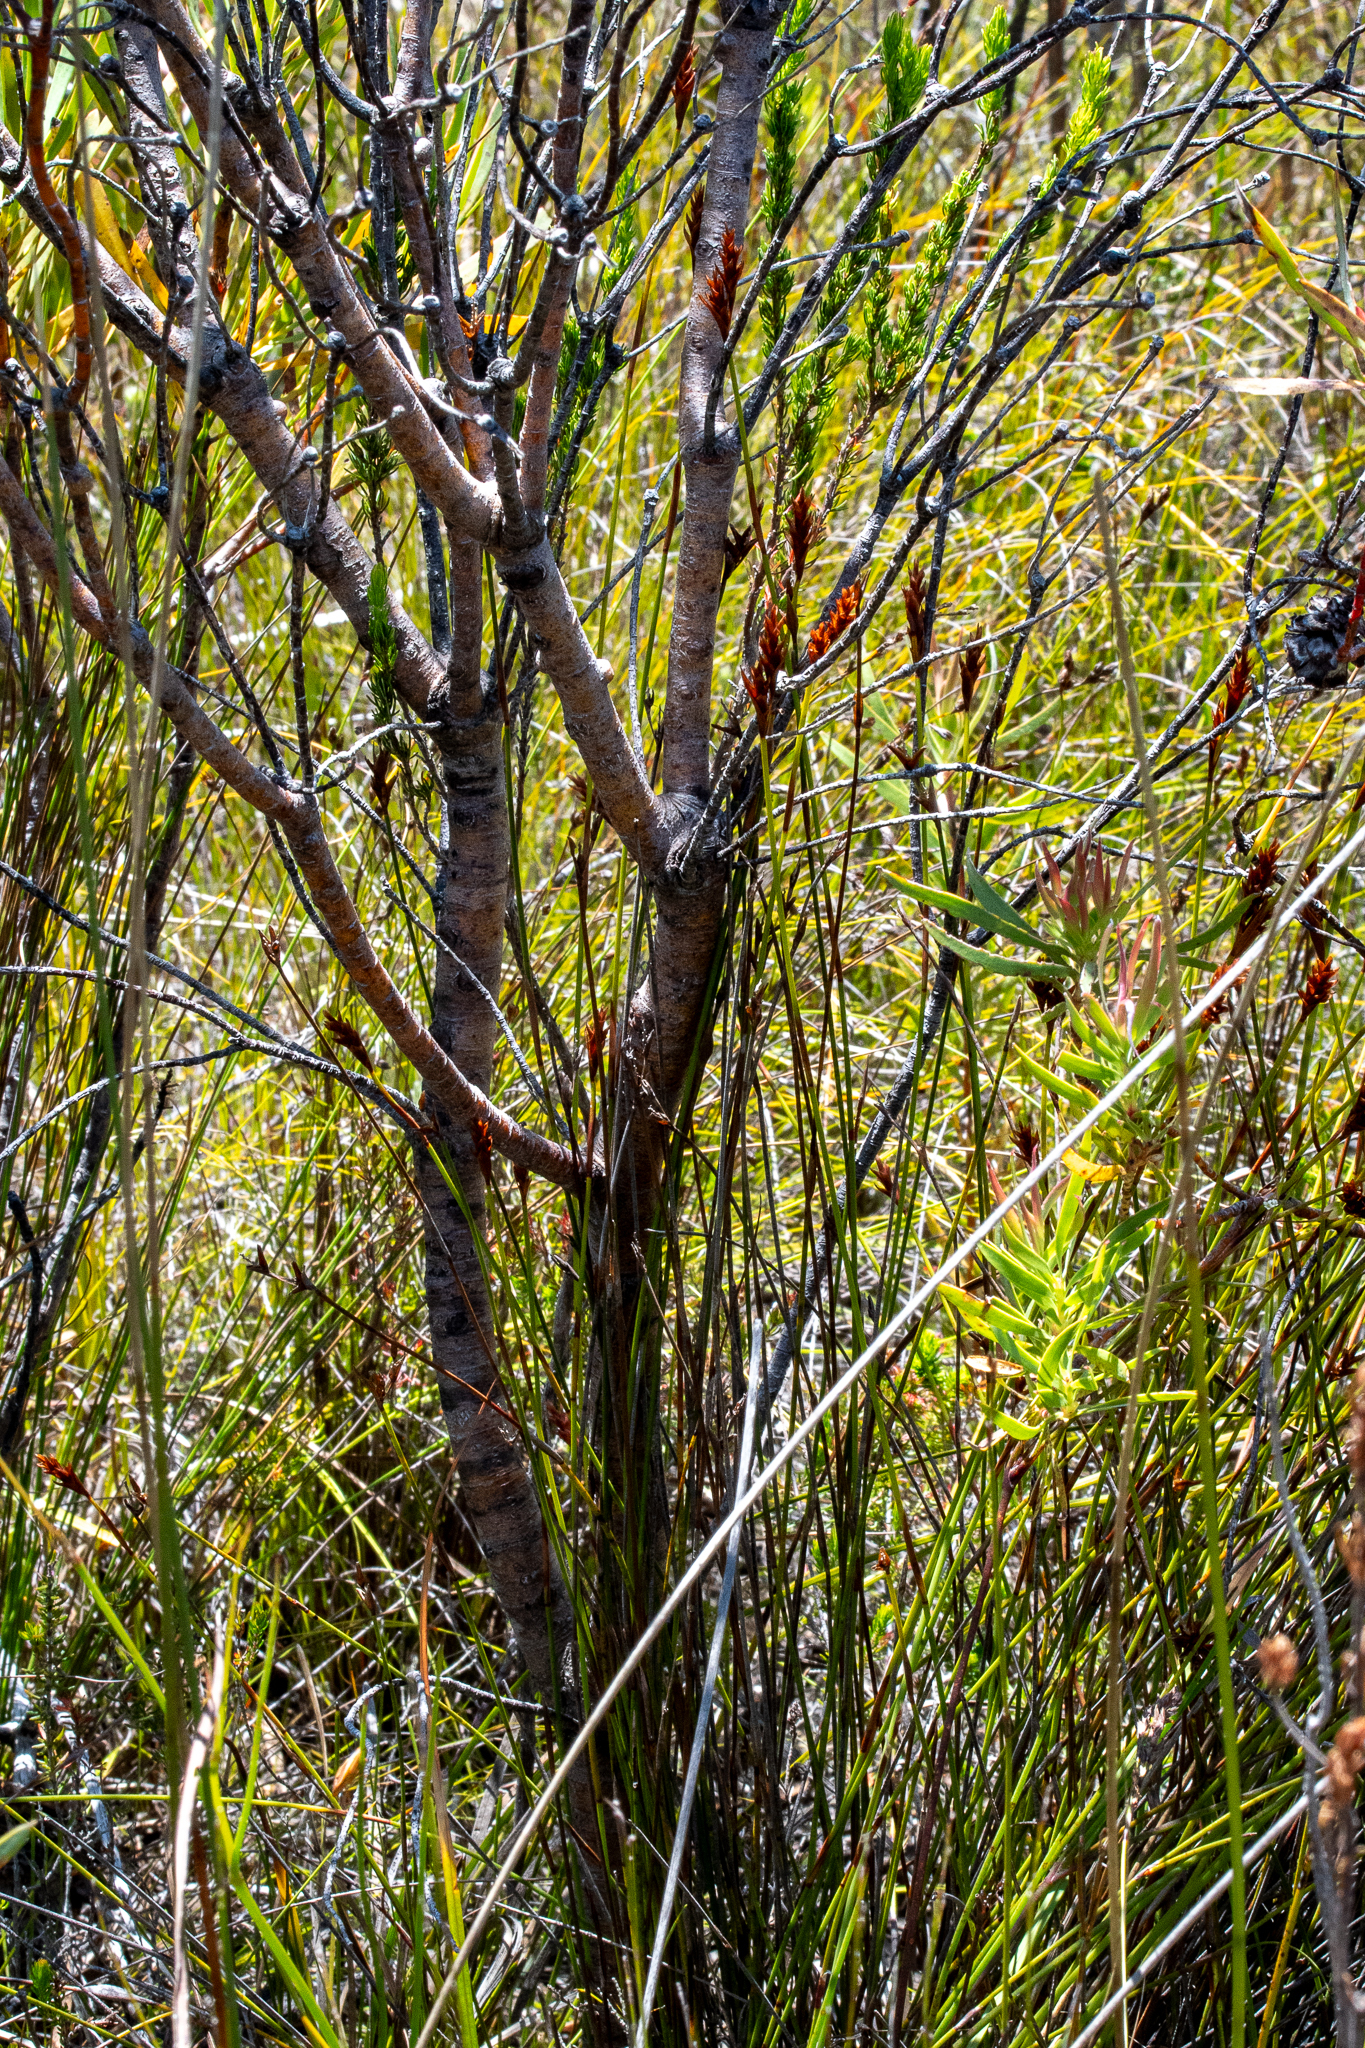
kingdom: Plantae
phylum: Tracheophyta
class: Magnoliopsida
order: Proteales
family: Proteaceae
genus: Leucadendron
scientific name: Leucadendron
